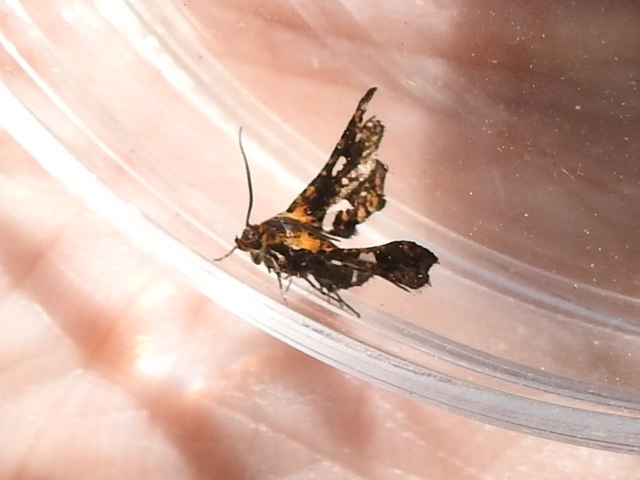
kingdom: Animalia
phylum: Arthropoda
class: Insecta
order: Lepidoptera
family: Thyrididae
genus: Thyris
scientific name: Thyris maculata
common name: Spotted thyris moth
